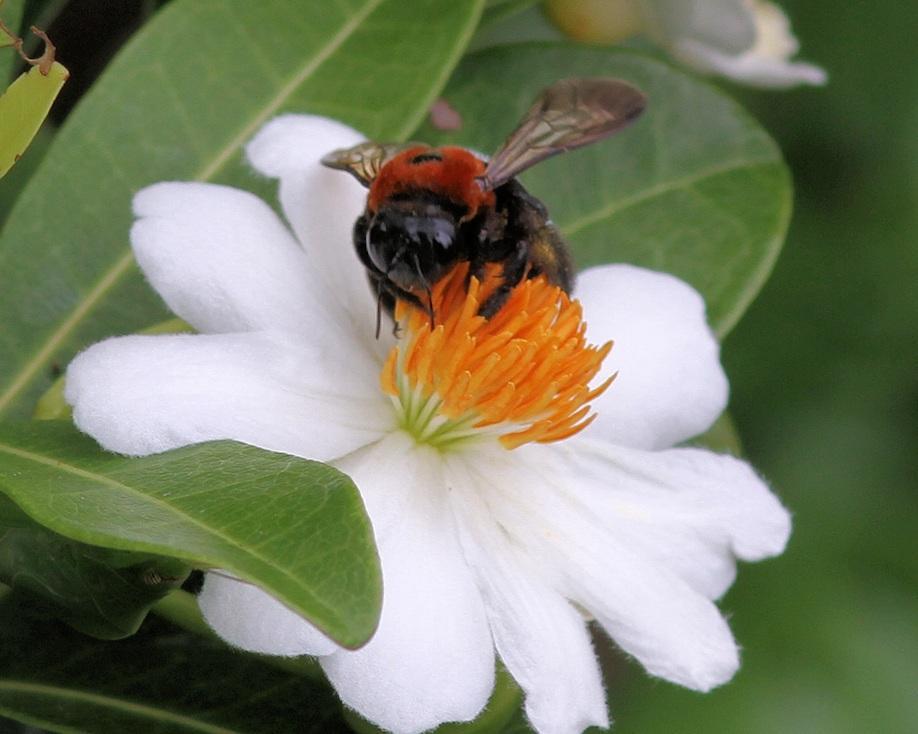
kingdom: Plantae
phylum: Tracheophyta
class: Magnoliopsida
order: Malpighiales
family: Achariaceae
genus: Xylotheca
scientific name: Xylotheca kraussiana
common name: African dog rose
